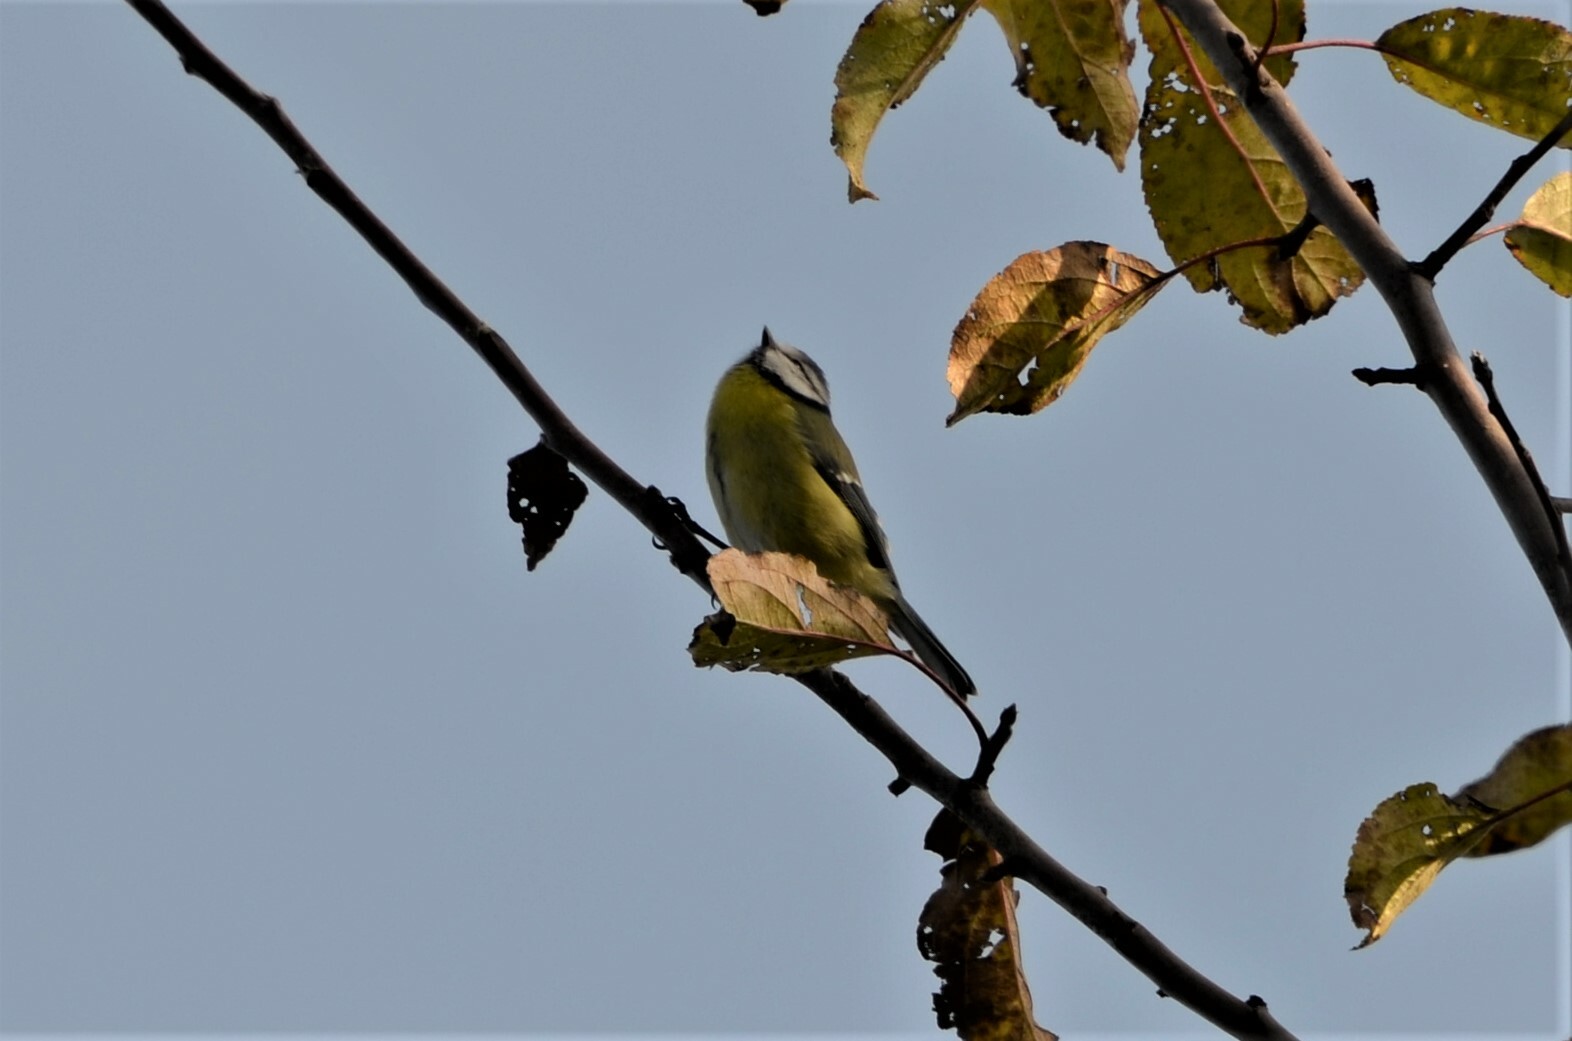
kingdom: Animalia
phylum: Chordata
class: Aves
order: Passeriformes
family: Paridae
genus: Cyanistes
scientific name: Cyanistes caeruleus
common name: Eurasian blue tit
